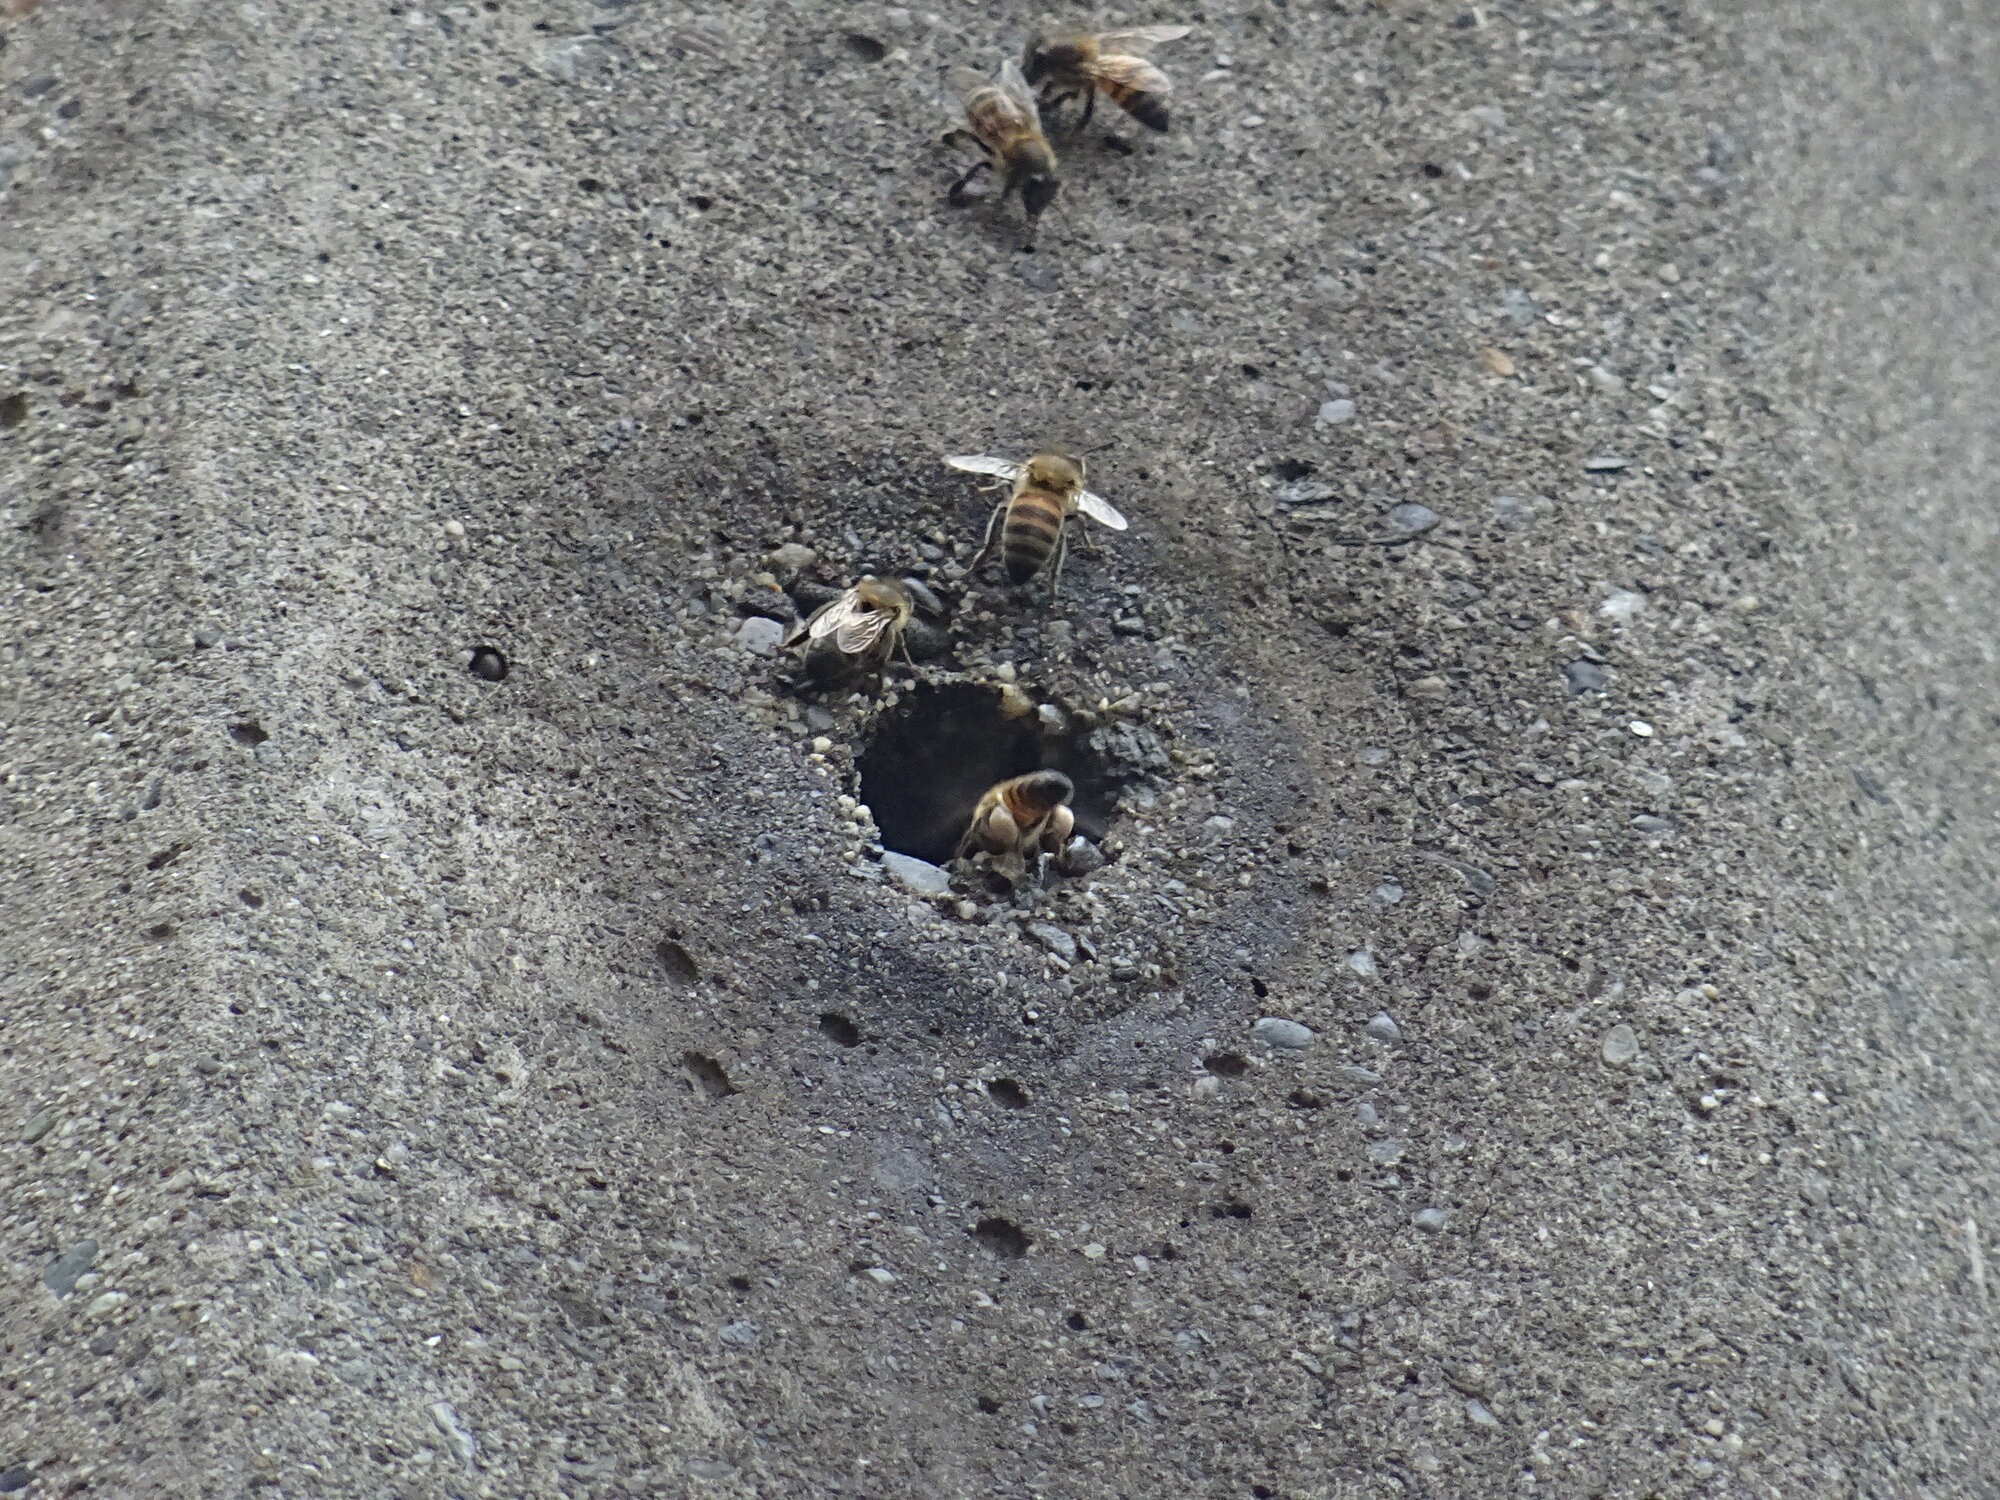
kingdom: Animalia
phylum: Arthropoda
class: Insecta
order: Hymenoptera
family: Apidae
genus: Apis
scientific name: Apis mellifera
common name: Honey bee
